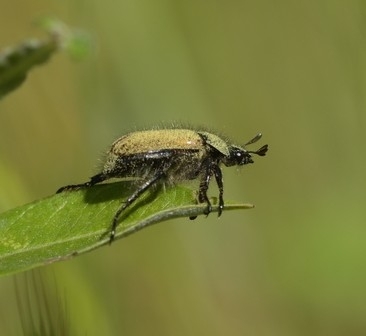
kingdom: Animalia
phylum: Arthropoda
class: Insecta
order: Coleoptera
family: Scarabaeidae
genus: Phyllopertha
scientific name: Phyllopertha horticola
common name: Garden chafer
